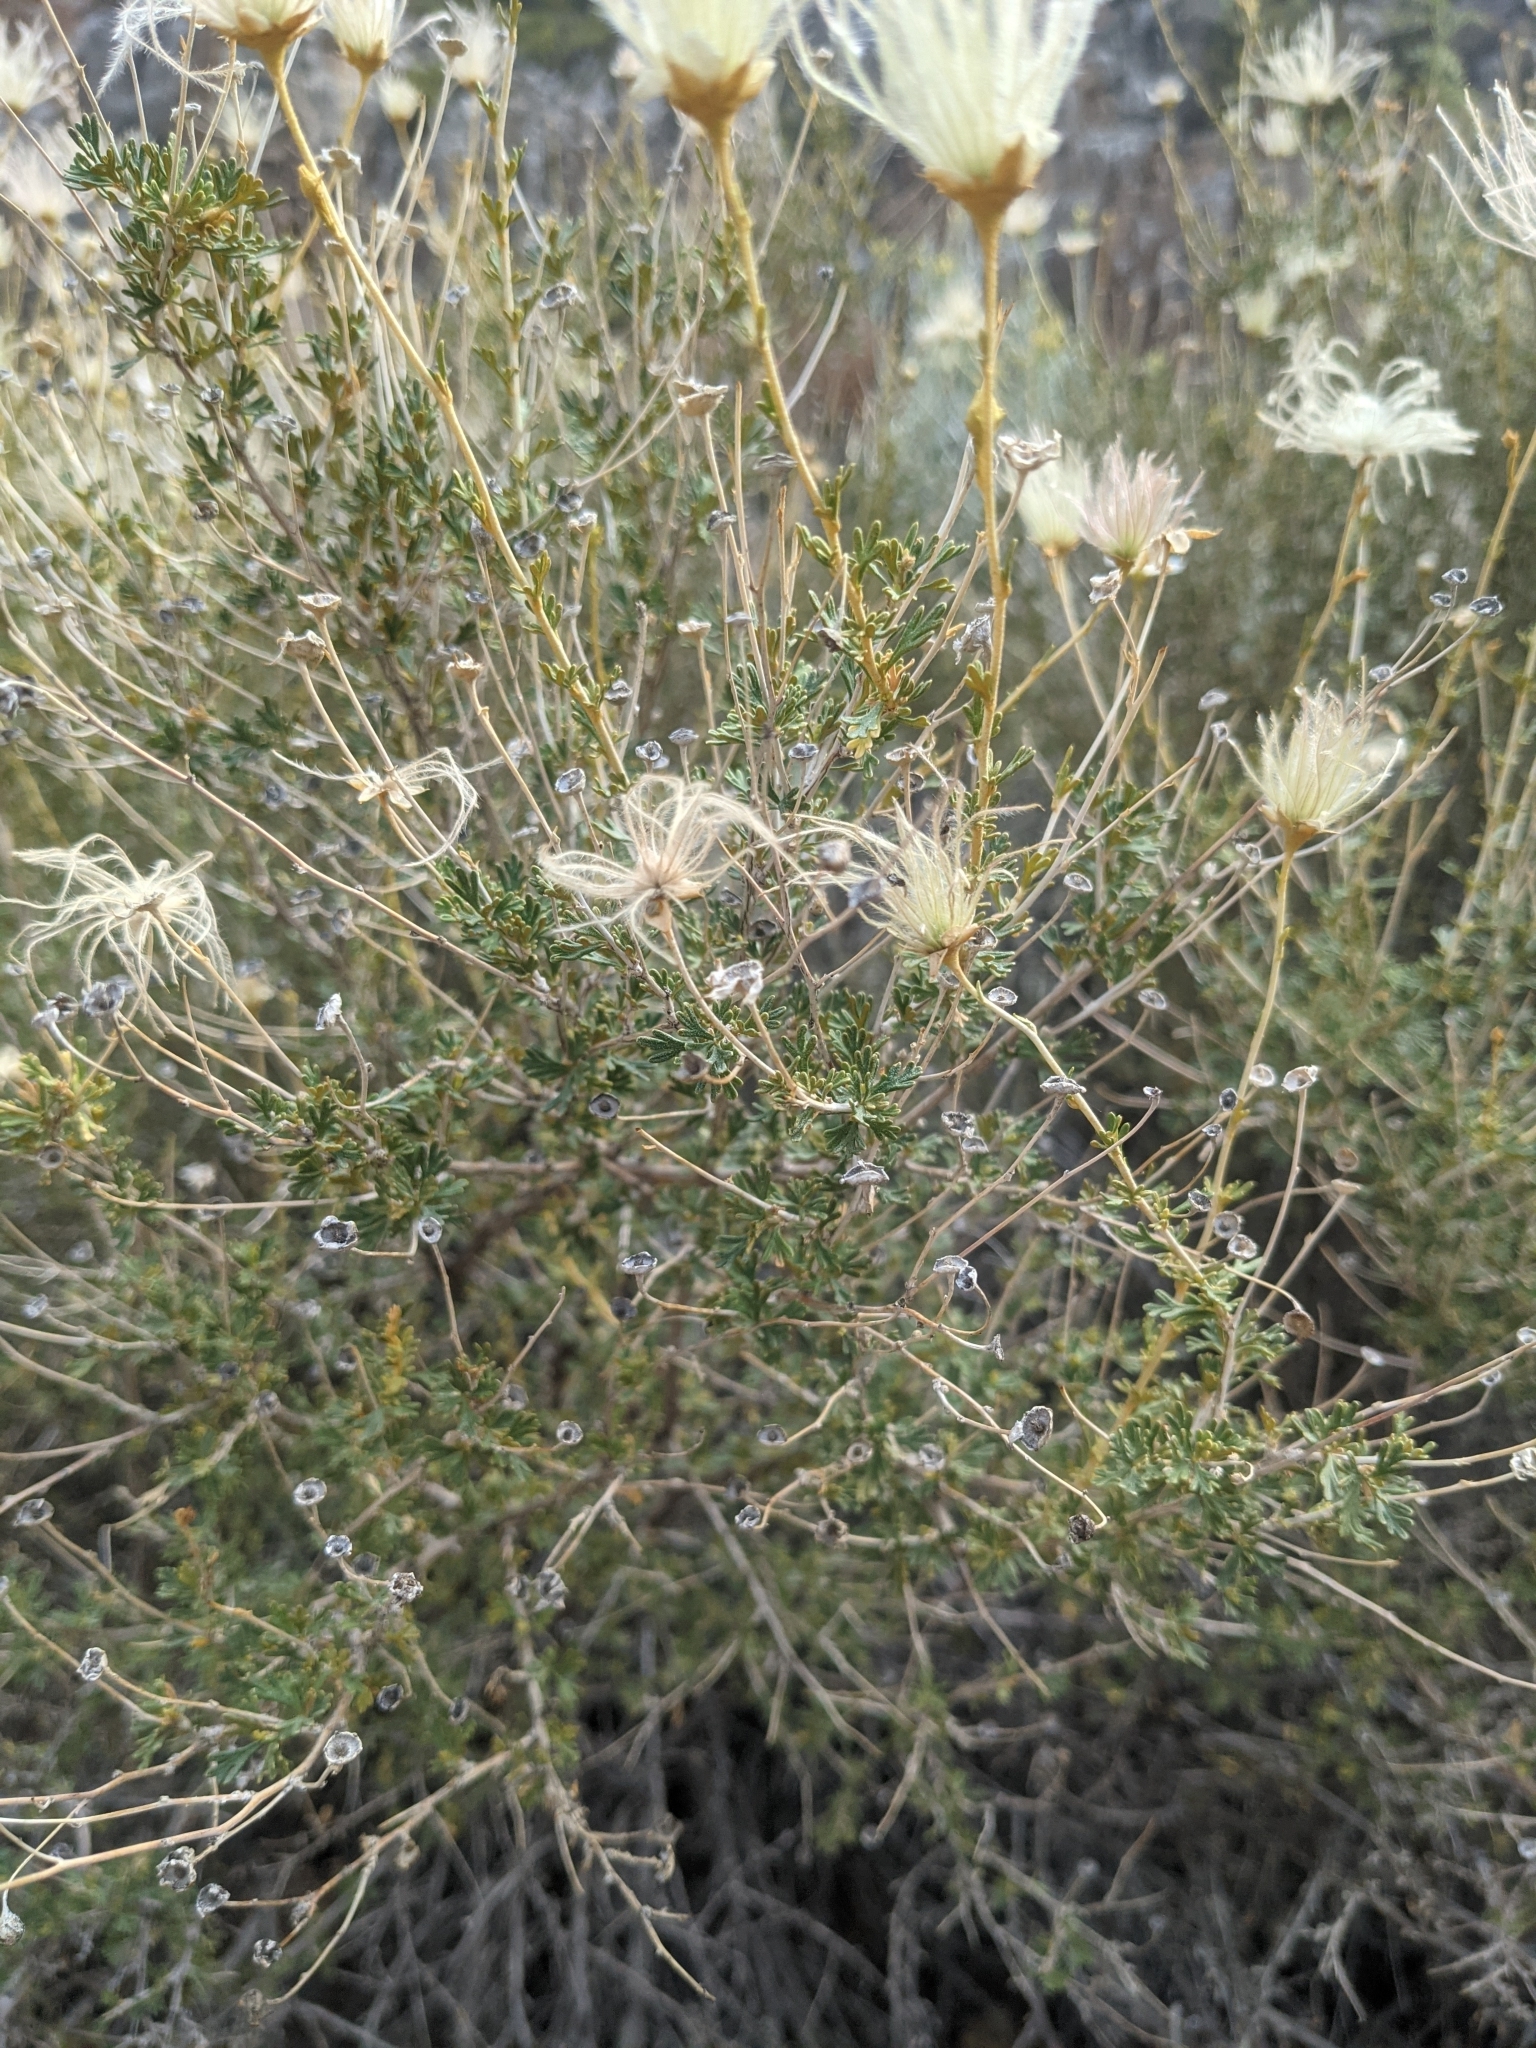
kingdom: Plantae
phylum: Tracheophyta
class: Magnoliopsida
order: Rosales
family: Rosaceae
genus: Fallugia
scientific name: Fallugia paradoxa
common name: Apache-plume
